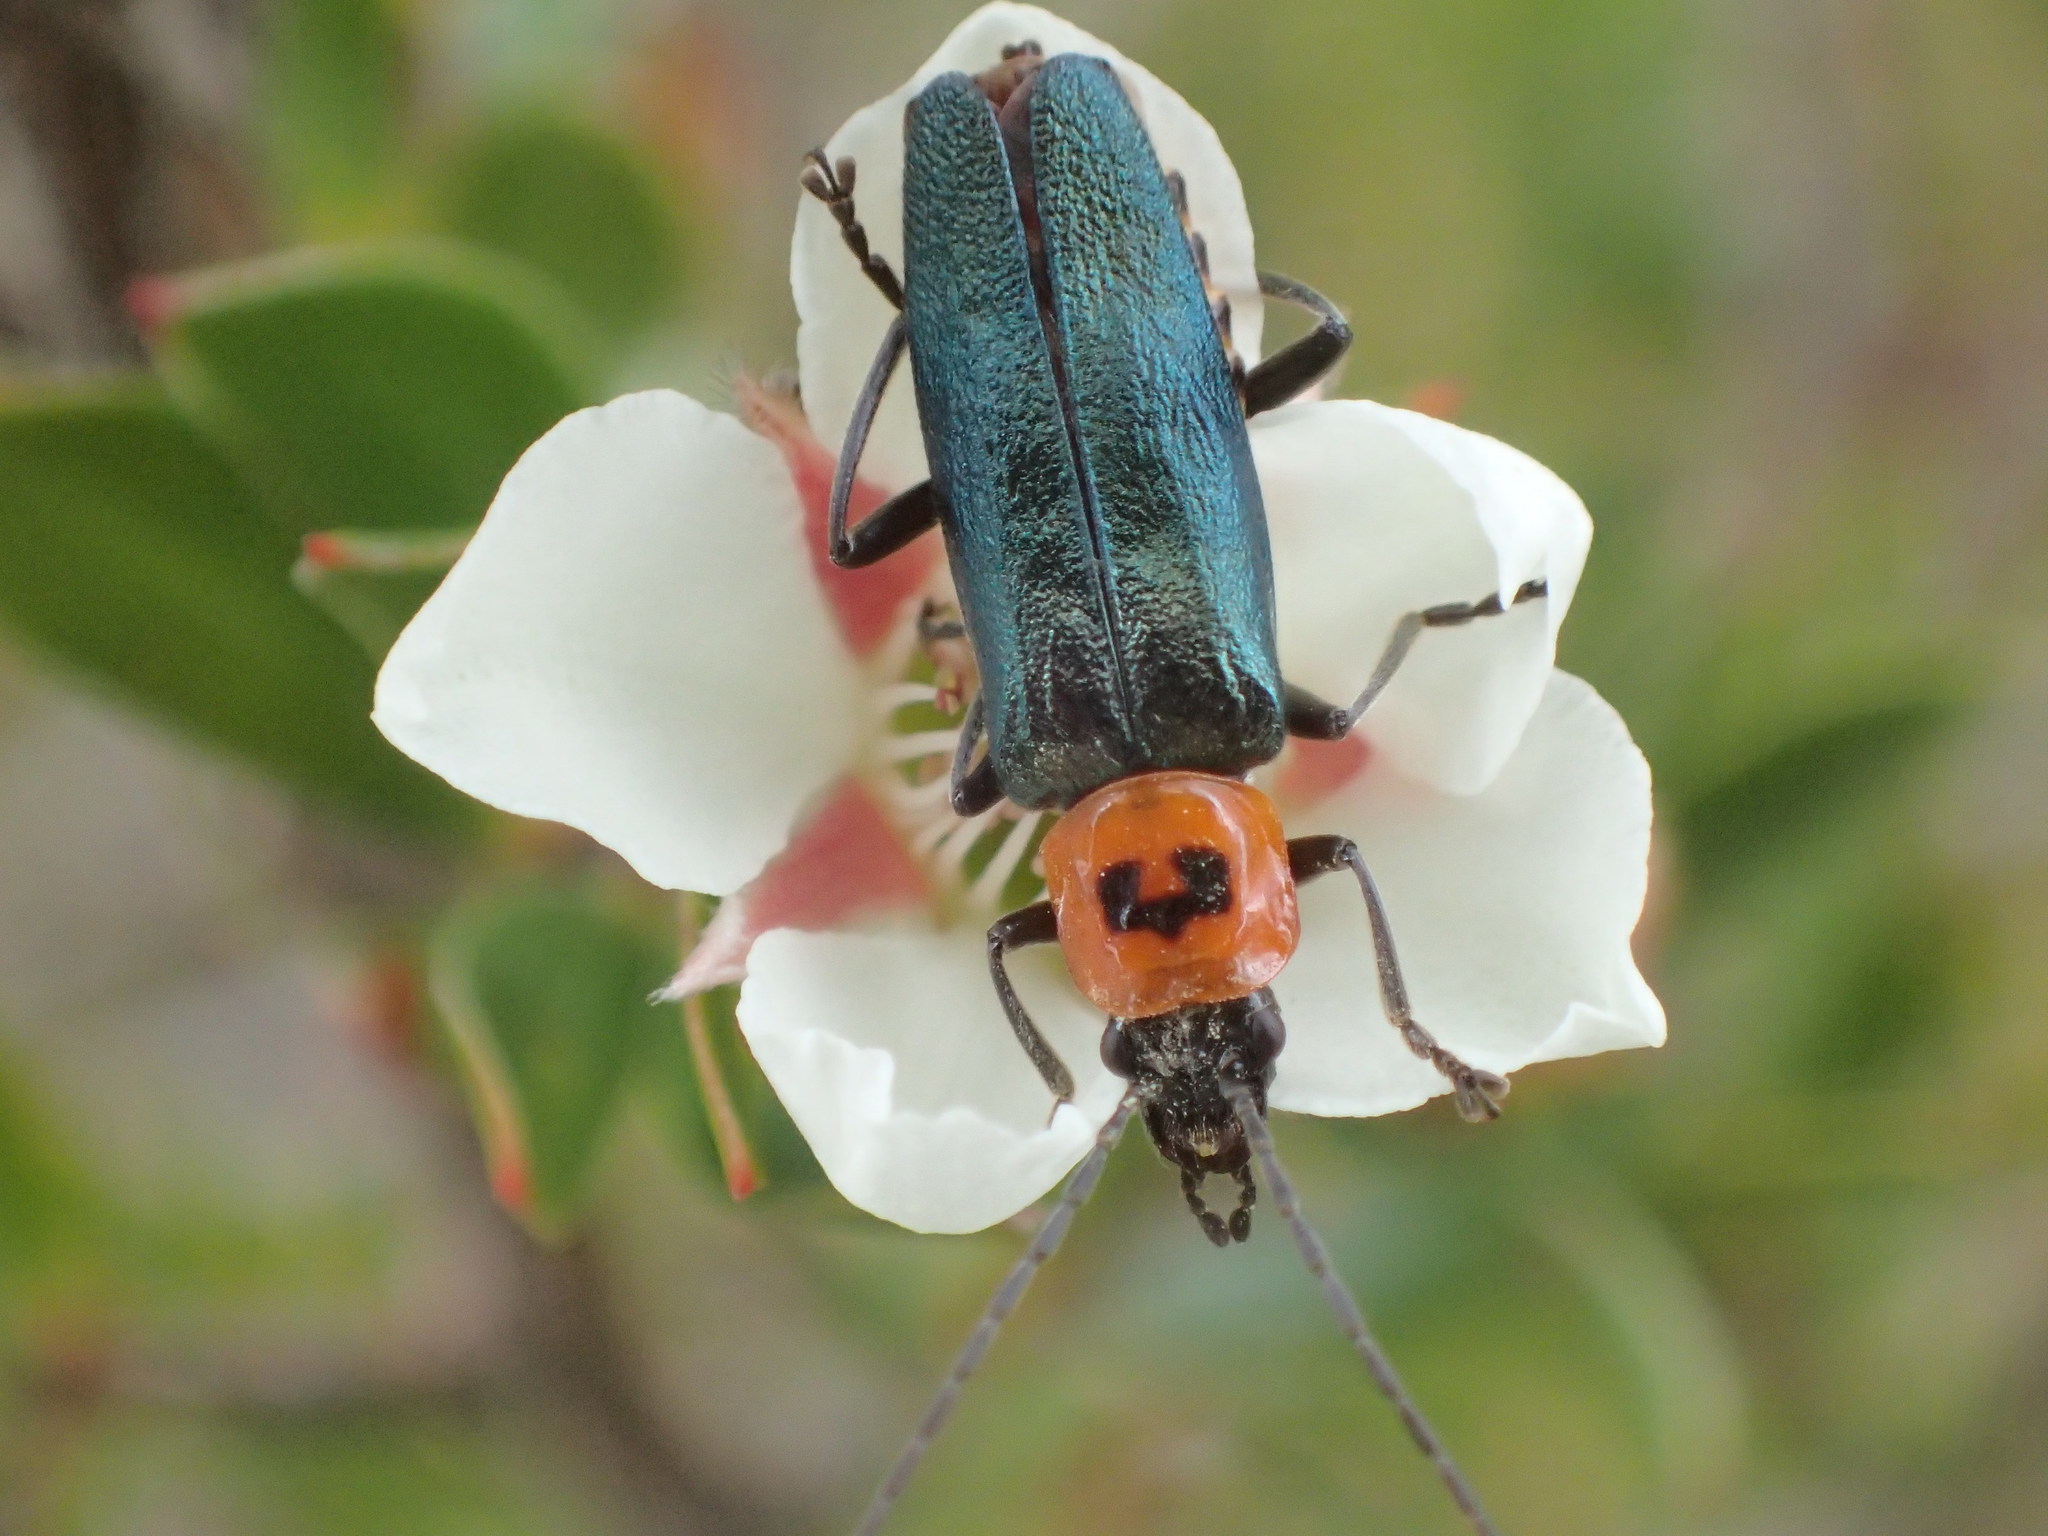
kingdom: Animalia
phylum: Arthropoda
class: Insecta
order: Coleoptera
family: Cantharidae
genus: Chauliognathus
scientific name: Chauliognathus
